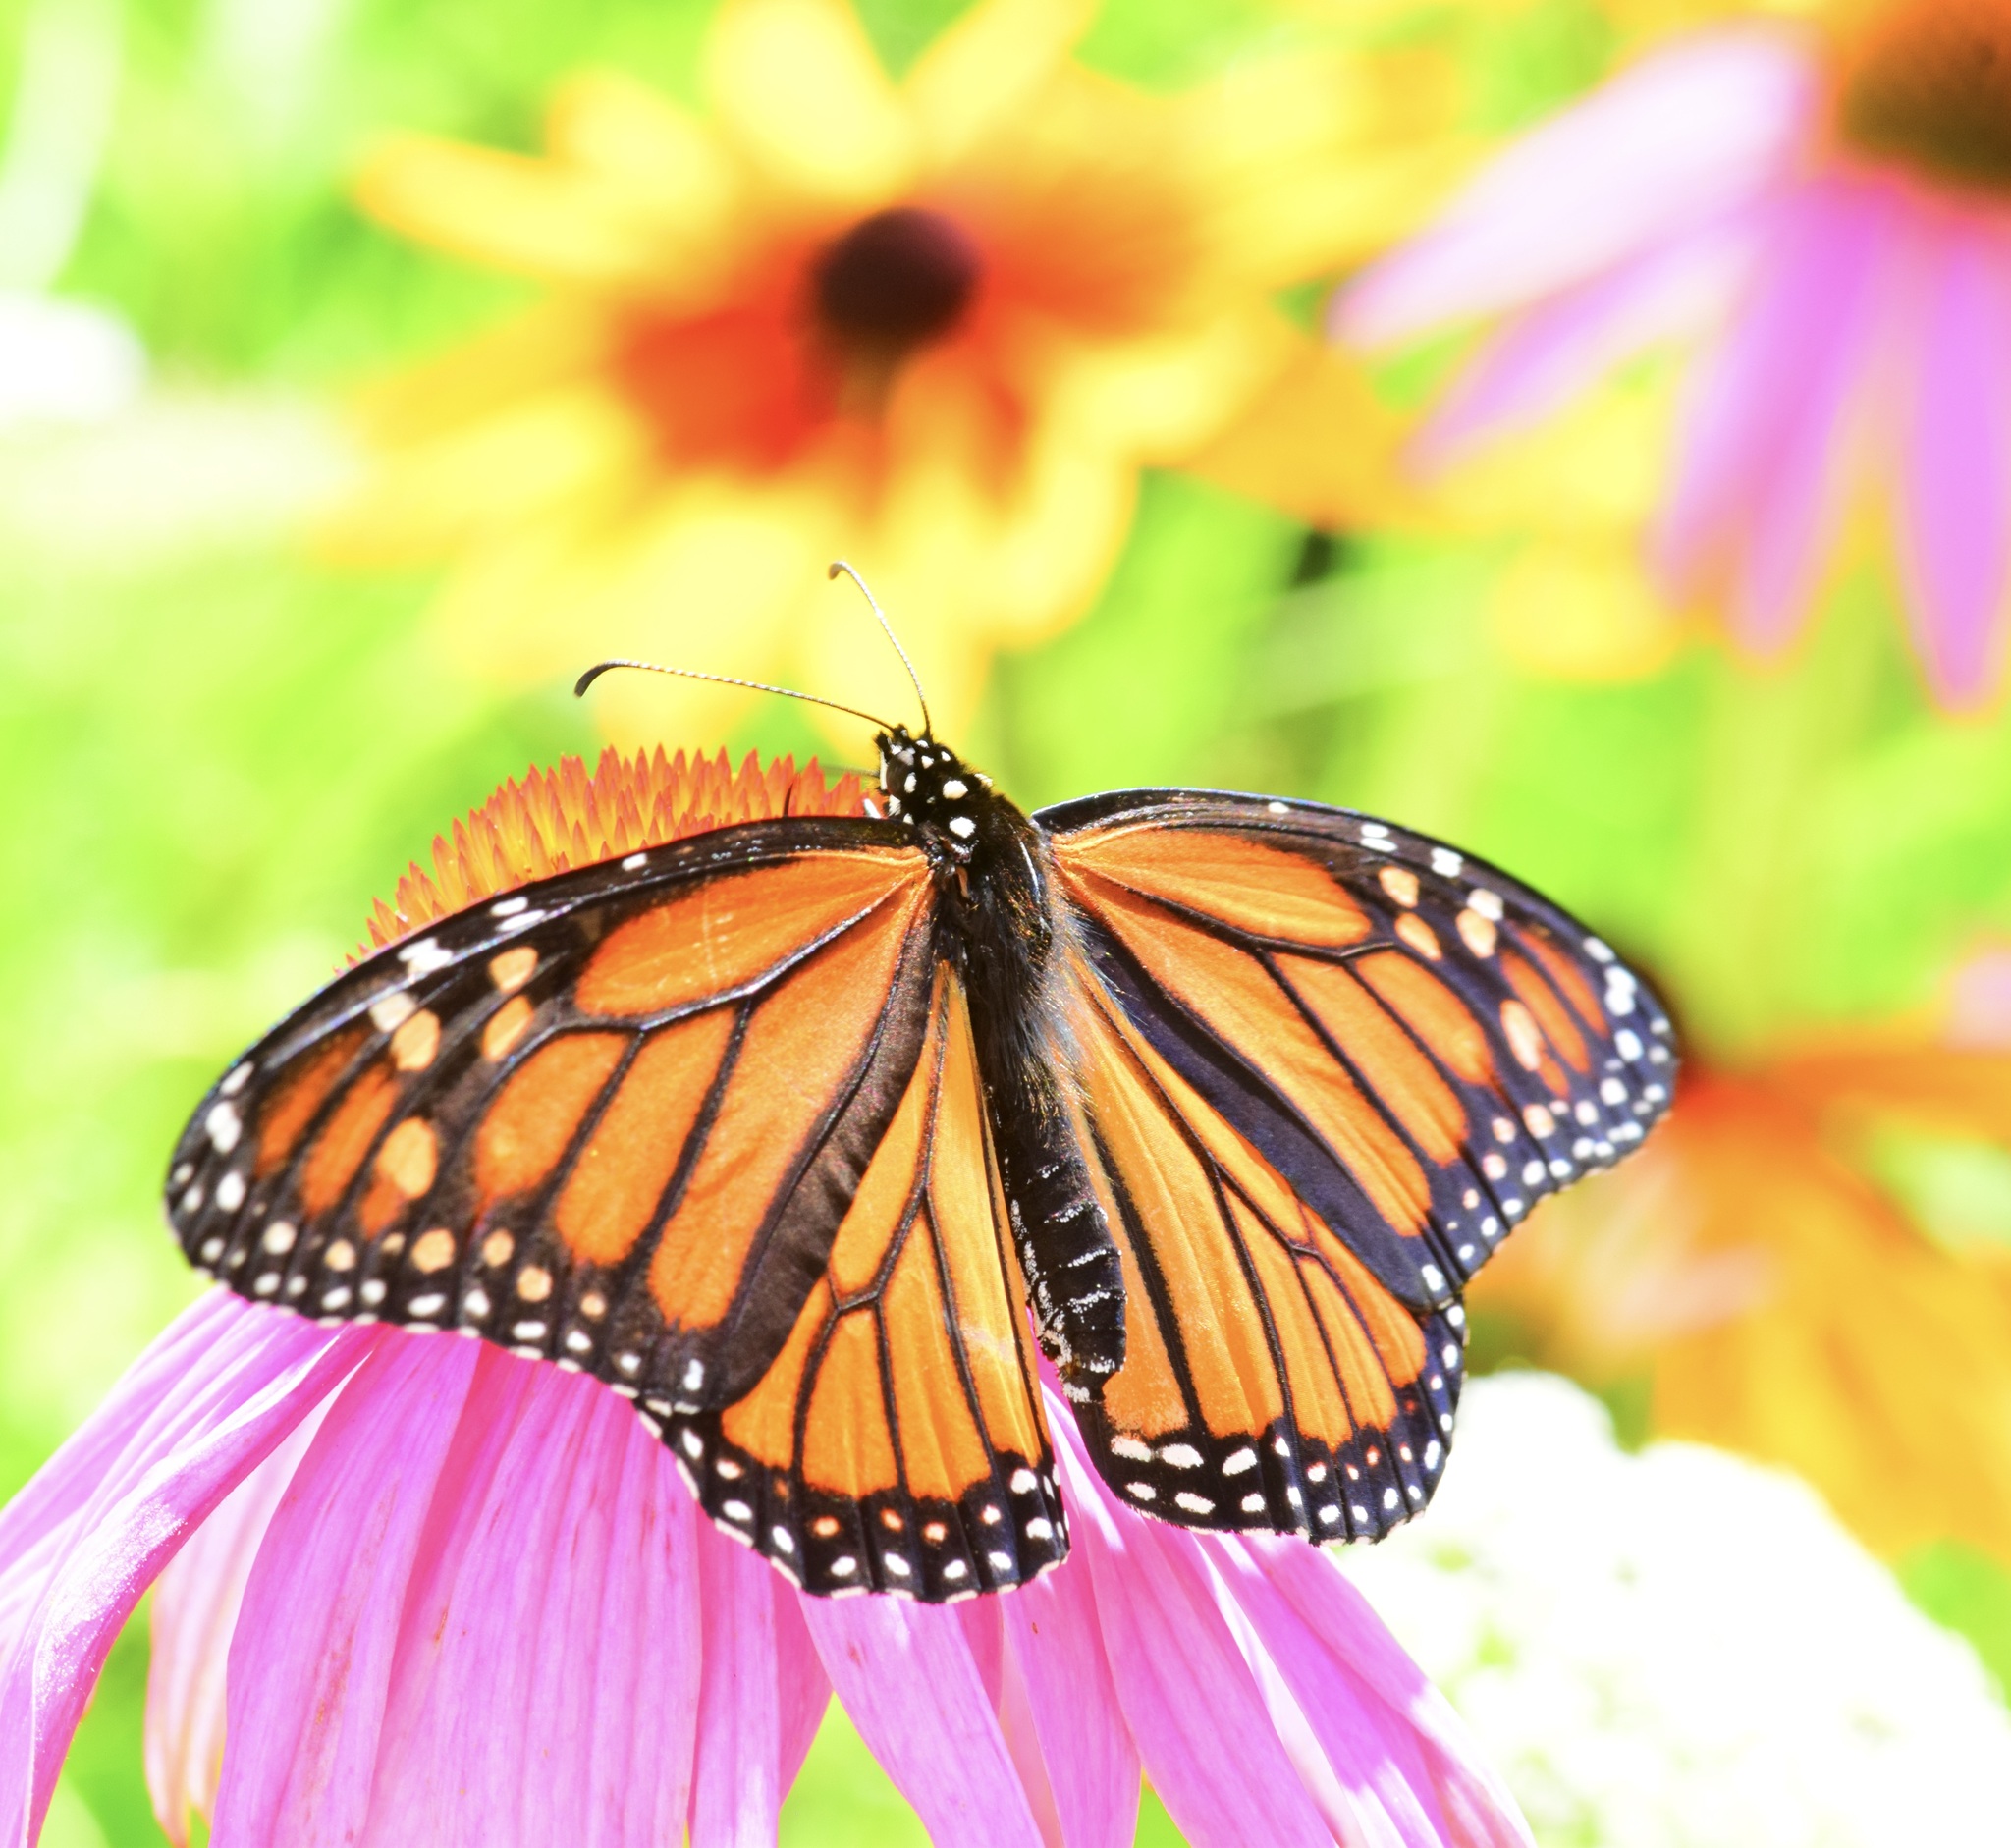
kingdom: Animalia
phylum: Arthropoda
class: Insecta
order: Lepidoptera
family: Nymphalidae
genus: Danaus
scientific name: Danaus plexippus
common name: Monarch
